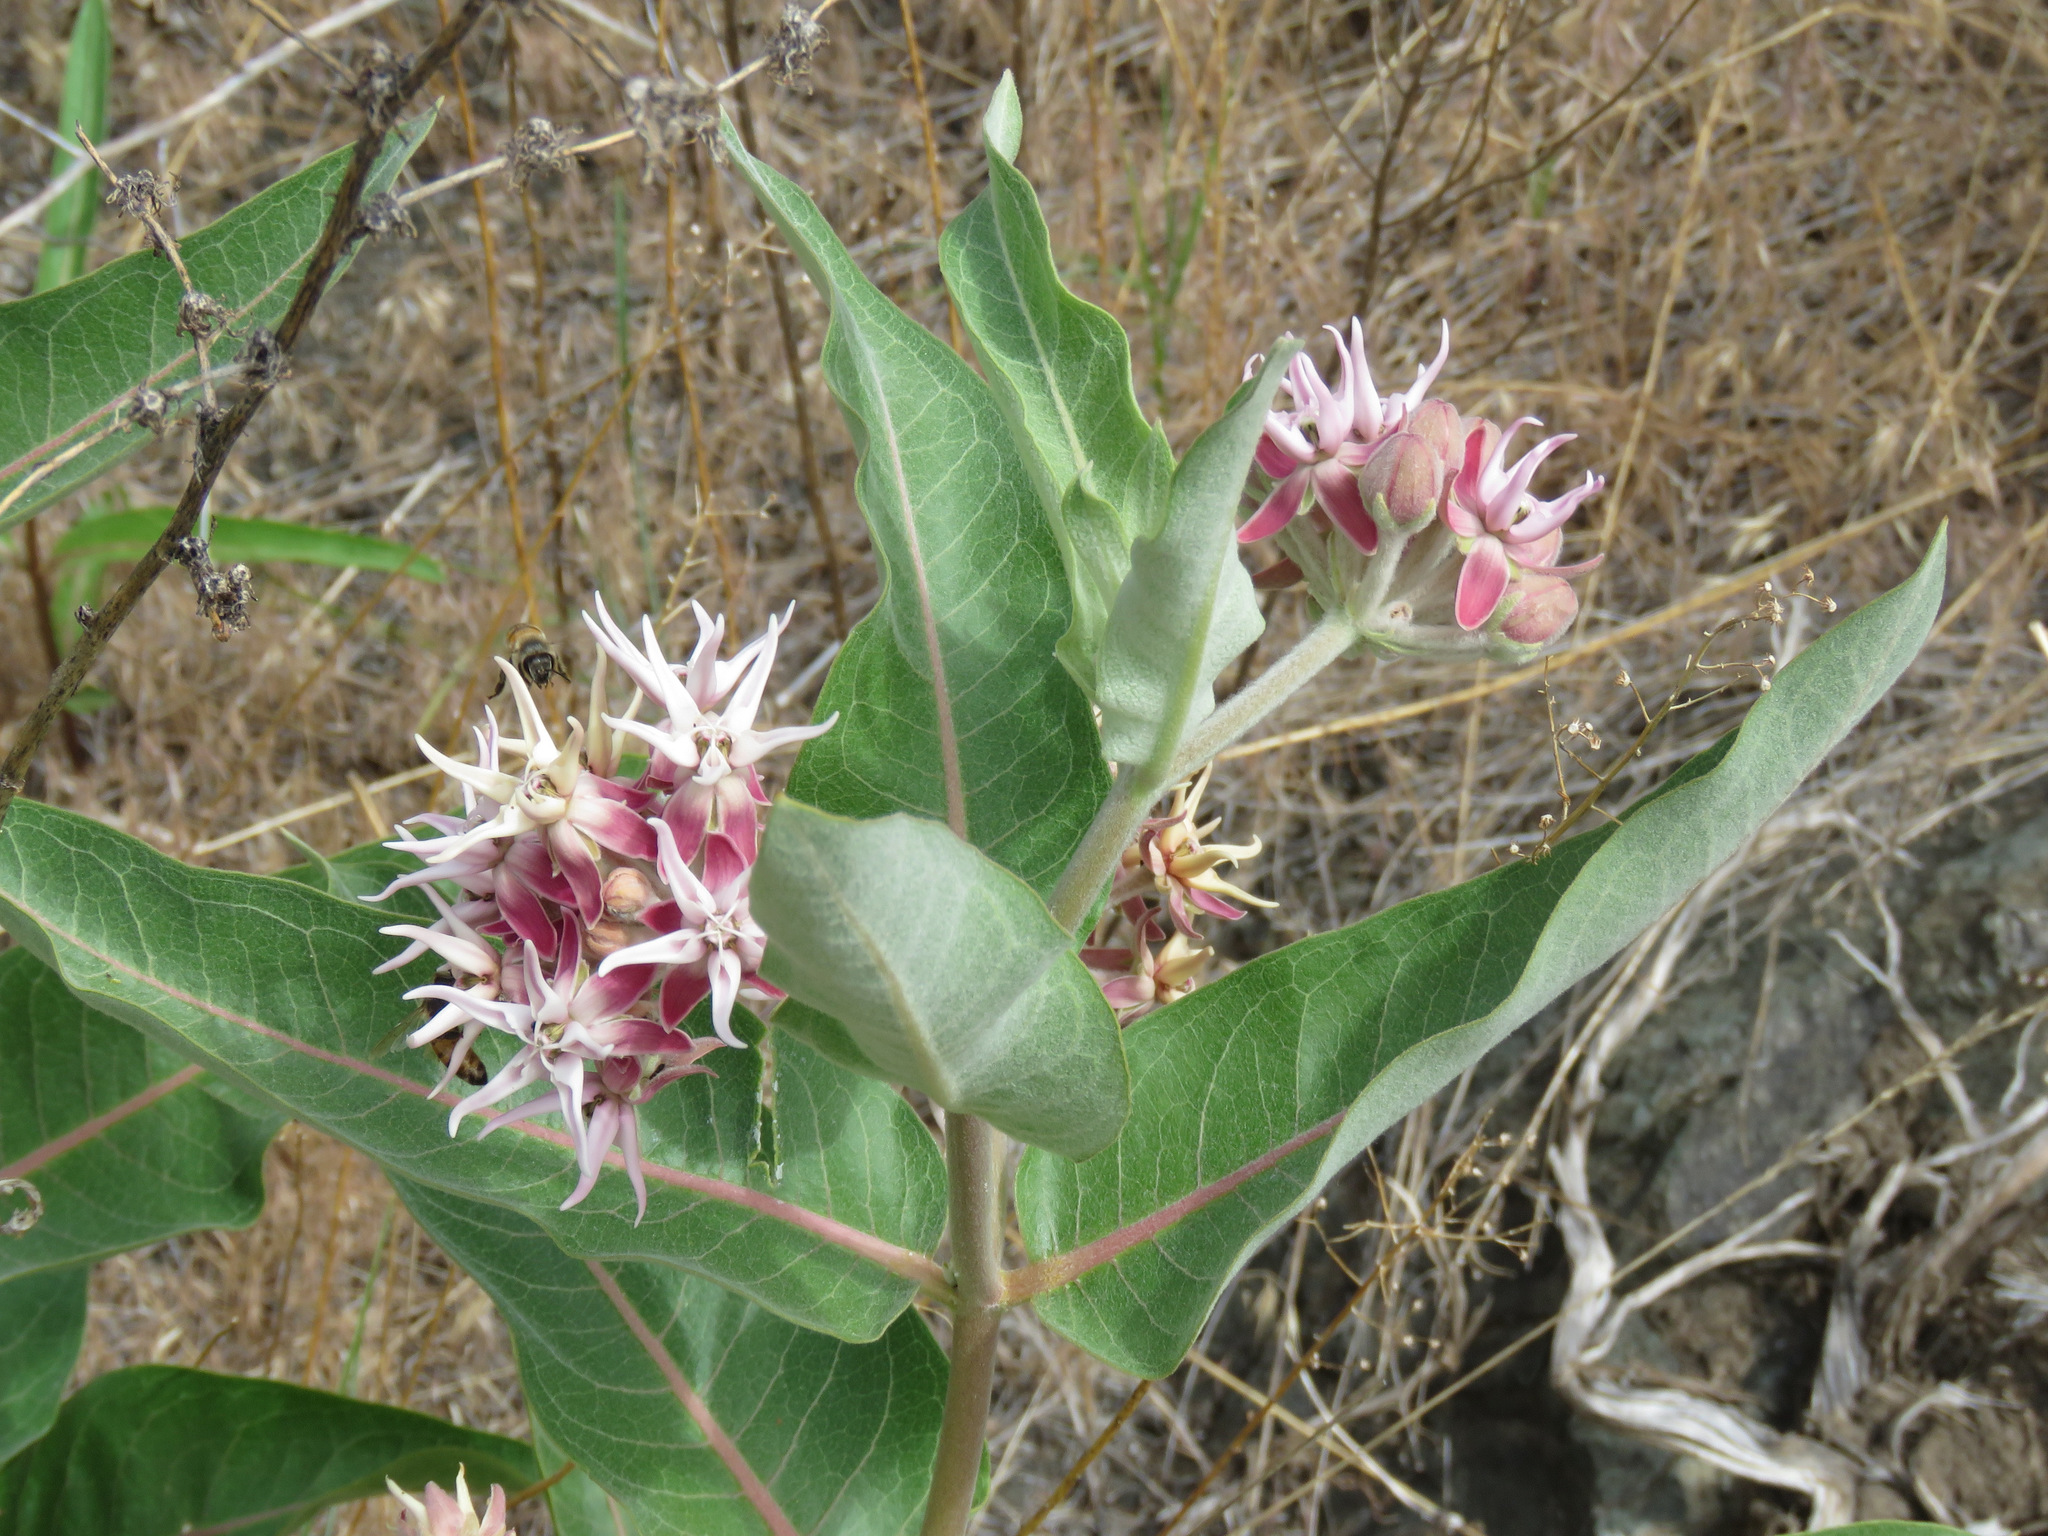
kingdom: Plantae
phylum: Tracheophyta
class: Magnoliopsida
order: Gentianales
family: Apocynaceae
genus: Asclepias
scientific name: Asclepias speciosa
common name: Showy milkweed
